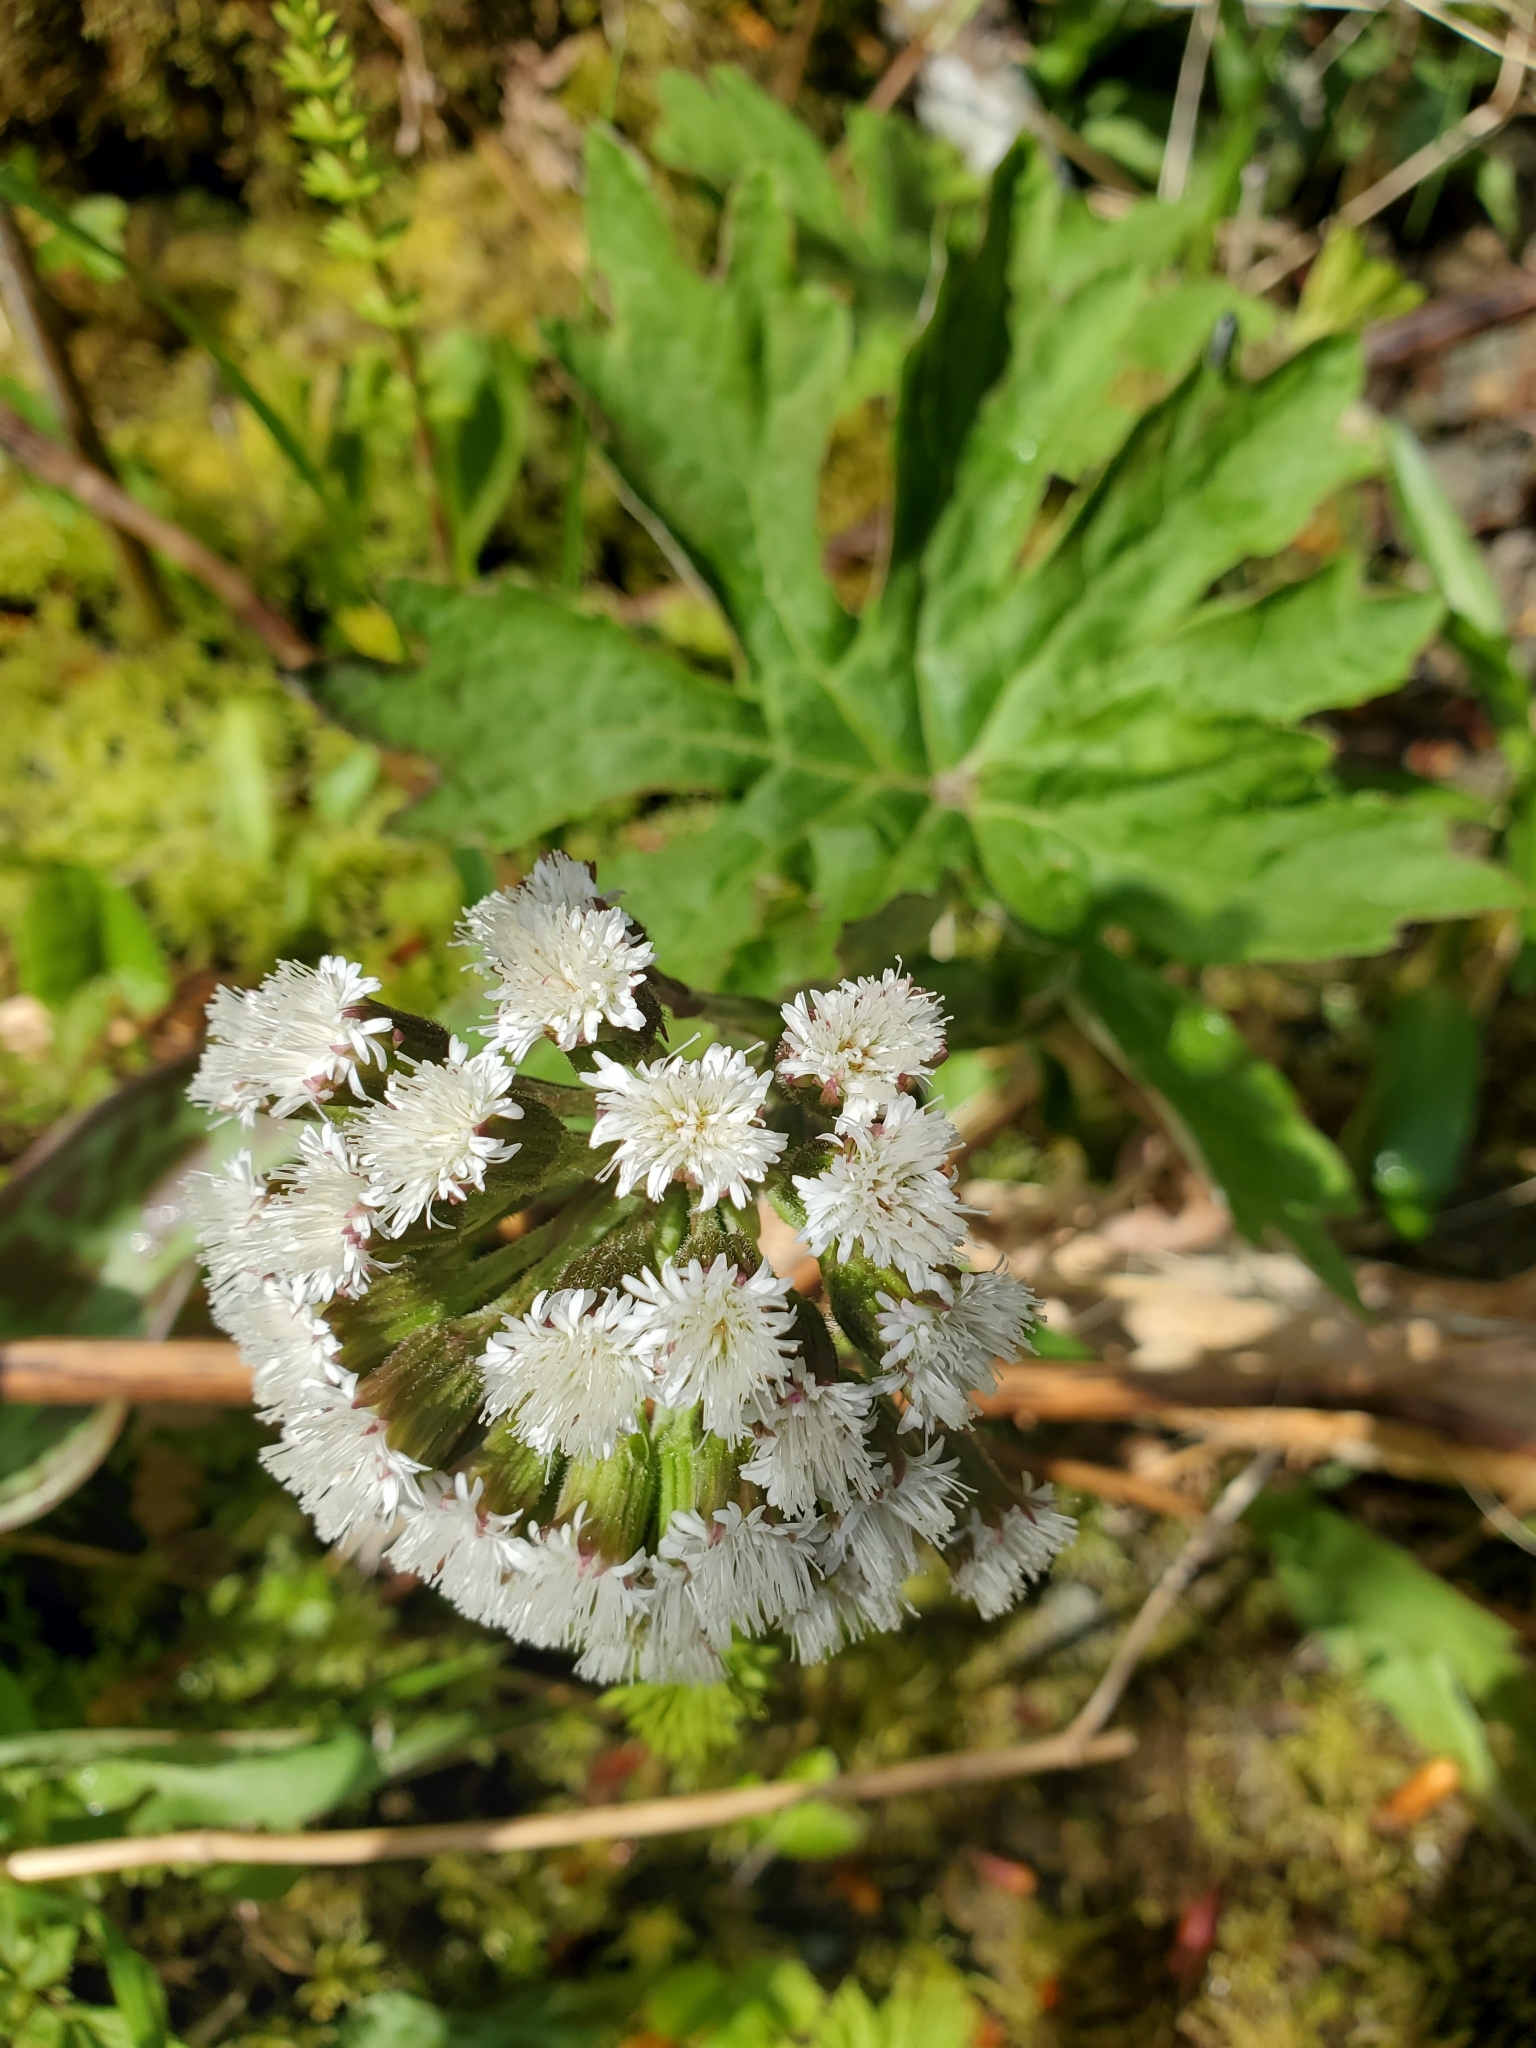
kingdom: Plantae
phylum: Tracheophyta
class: Magnoliopsida
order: Asterales
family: Asteraceae
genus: Petasites
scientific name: Petasites frigidus
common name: Arctic butterbur
